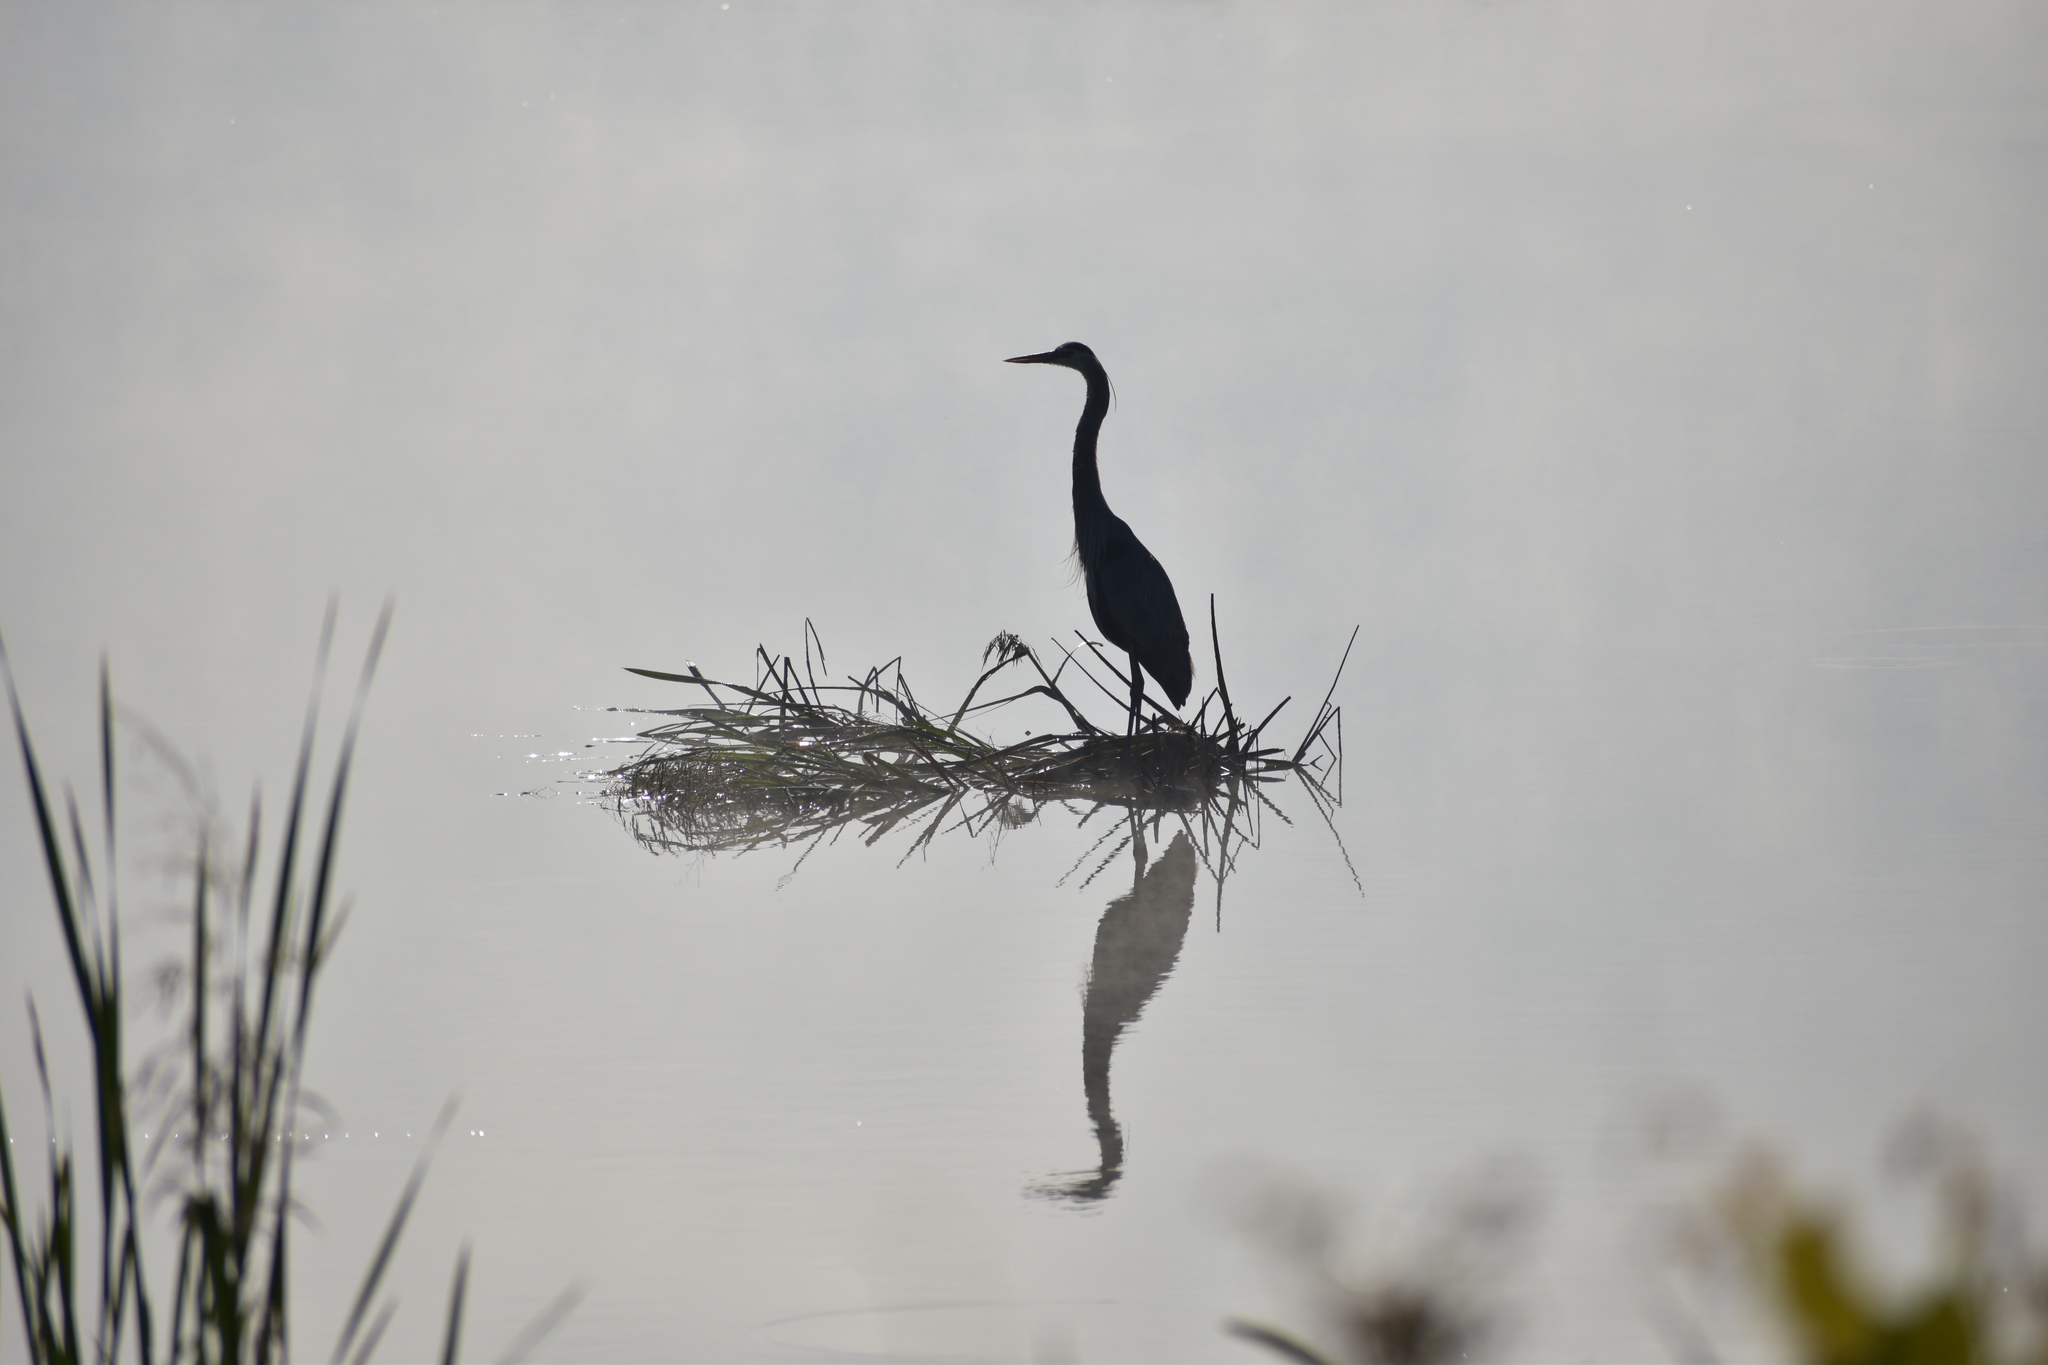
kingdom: Animalia
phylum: Chordata
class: Aves
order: Pelecaniformes
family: Ardeidae
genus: Ardea
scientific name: Ardea herodias
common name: Great blue heron
